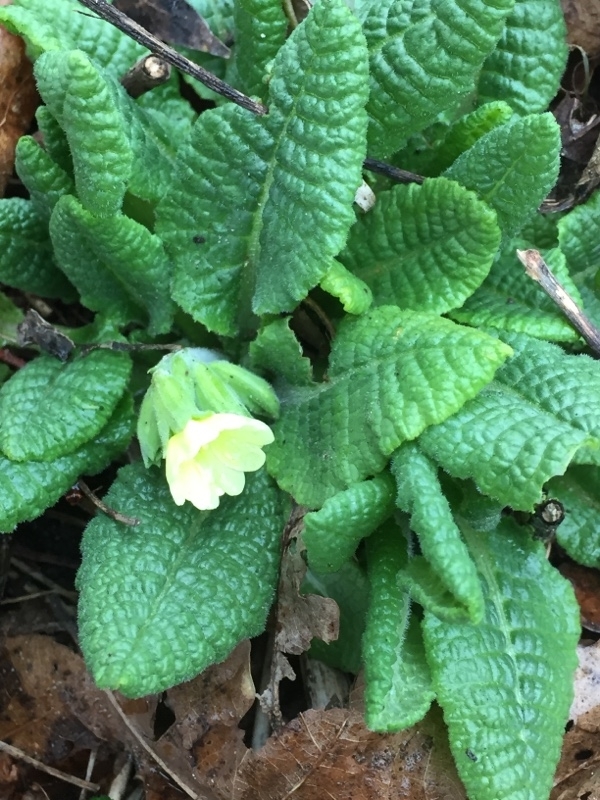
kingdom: Plantae
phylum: Tracheophyta
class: Magnoliopsida
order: Ericales
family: Primulaceae
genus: Primula
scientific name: Primula elatior
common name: Oxlip
